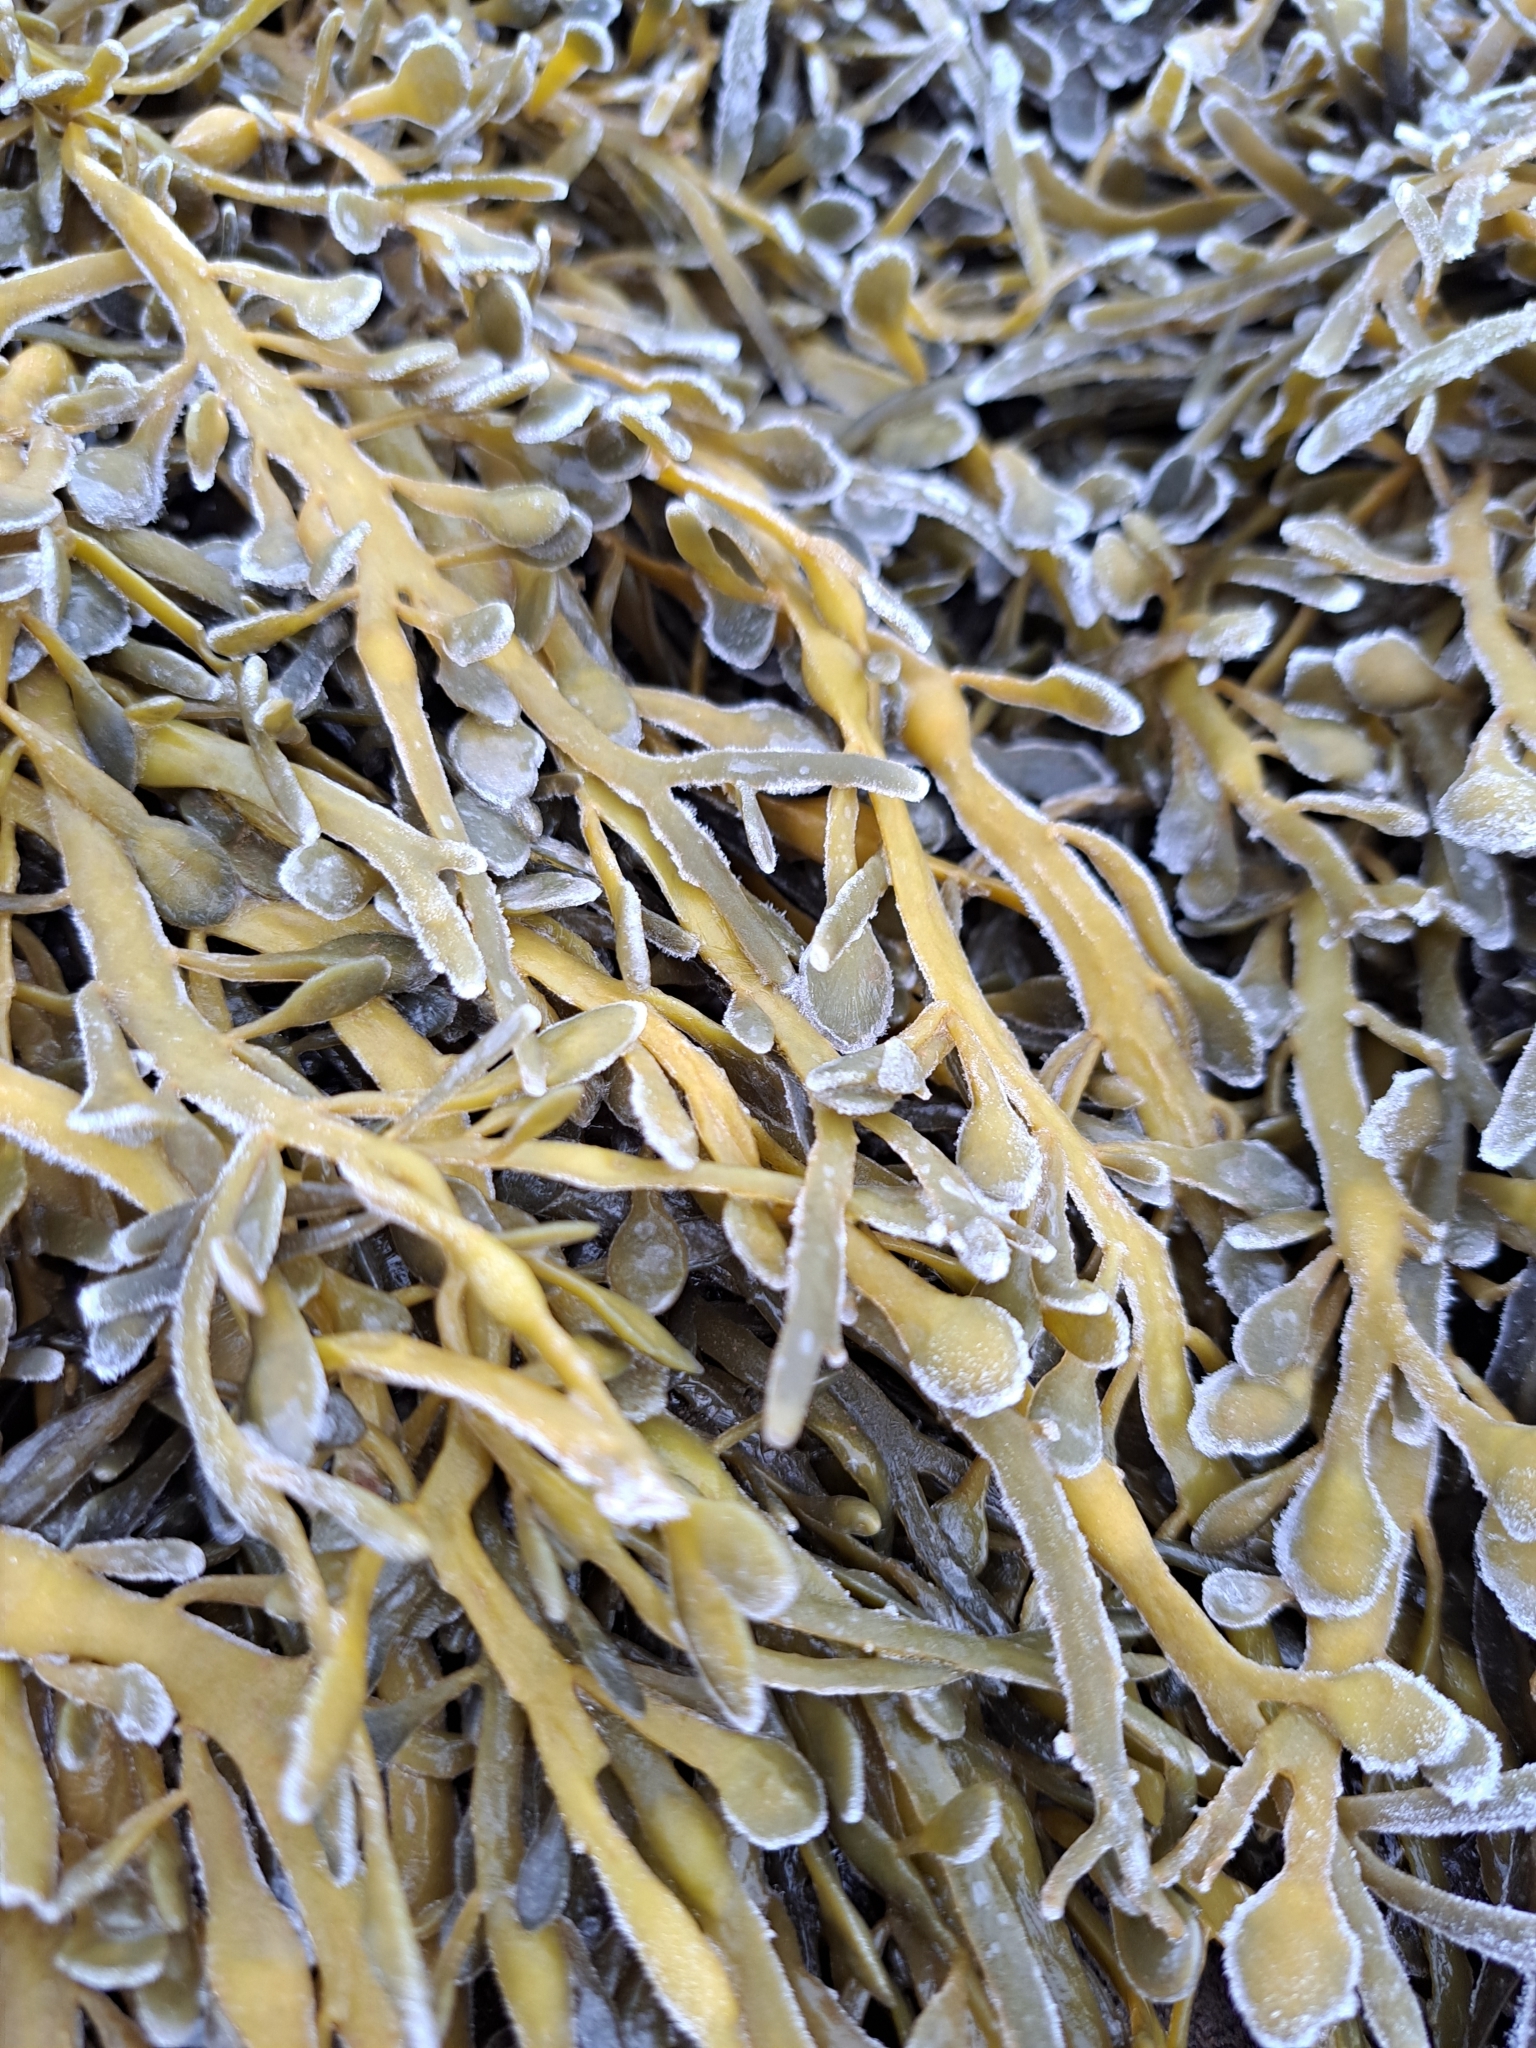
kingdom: Chromista
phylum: Ochrophyta
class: Phaeophyceae
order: Fucales
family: Fucaceae
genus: Ascophyllum
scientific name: Ascophyllum nodosum
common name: Knotted wrack
